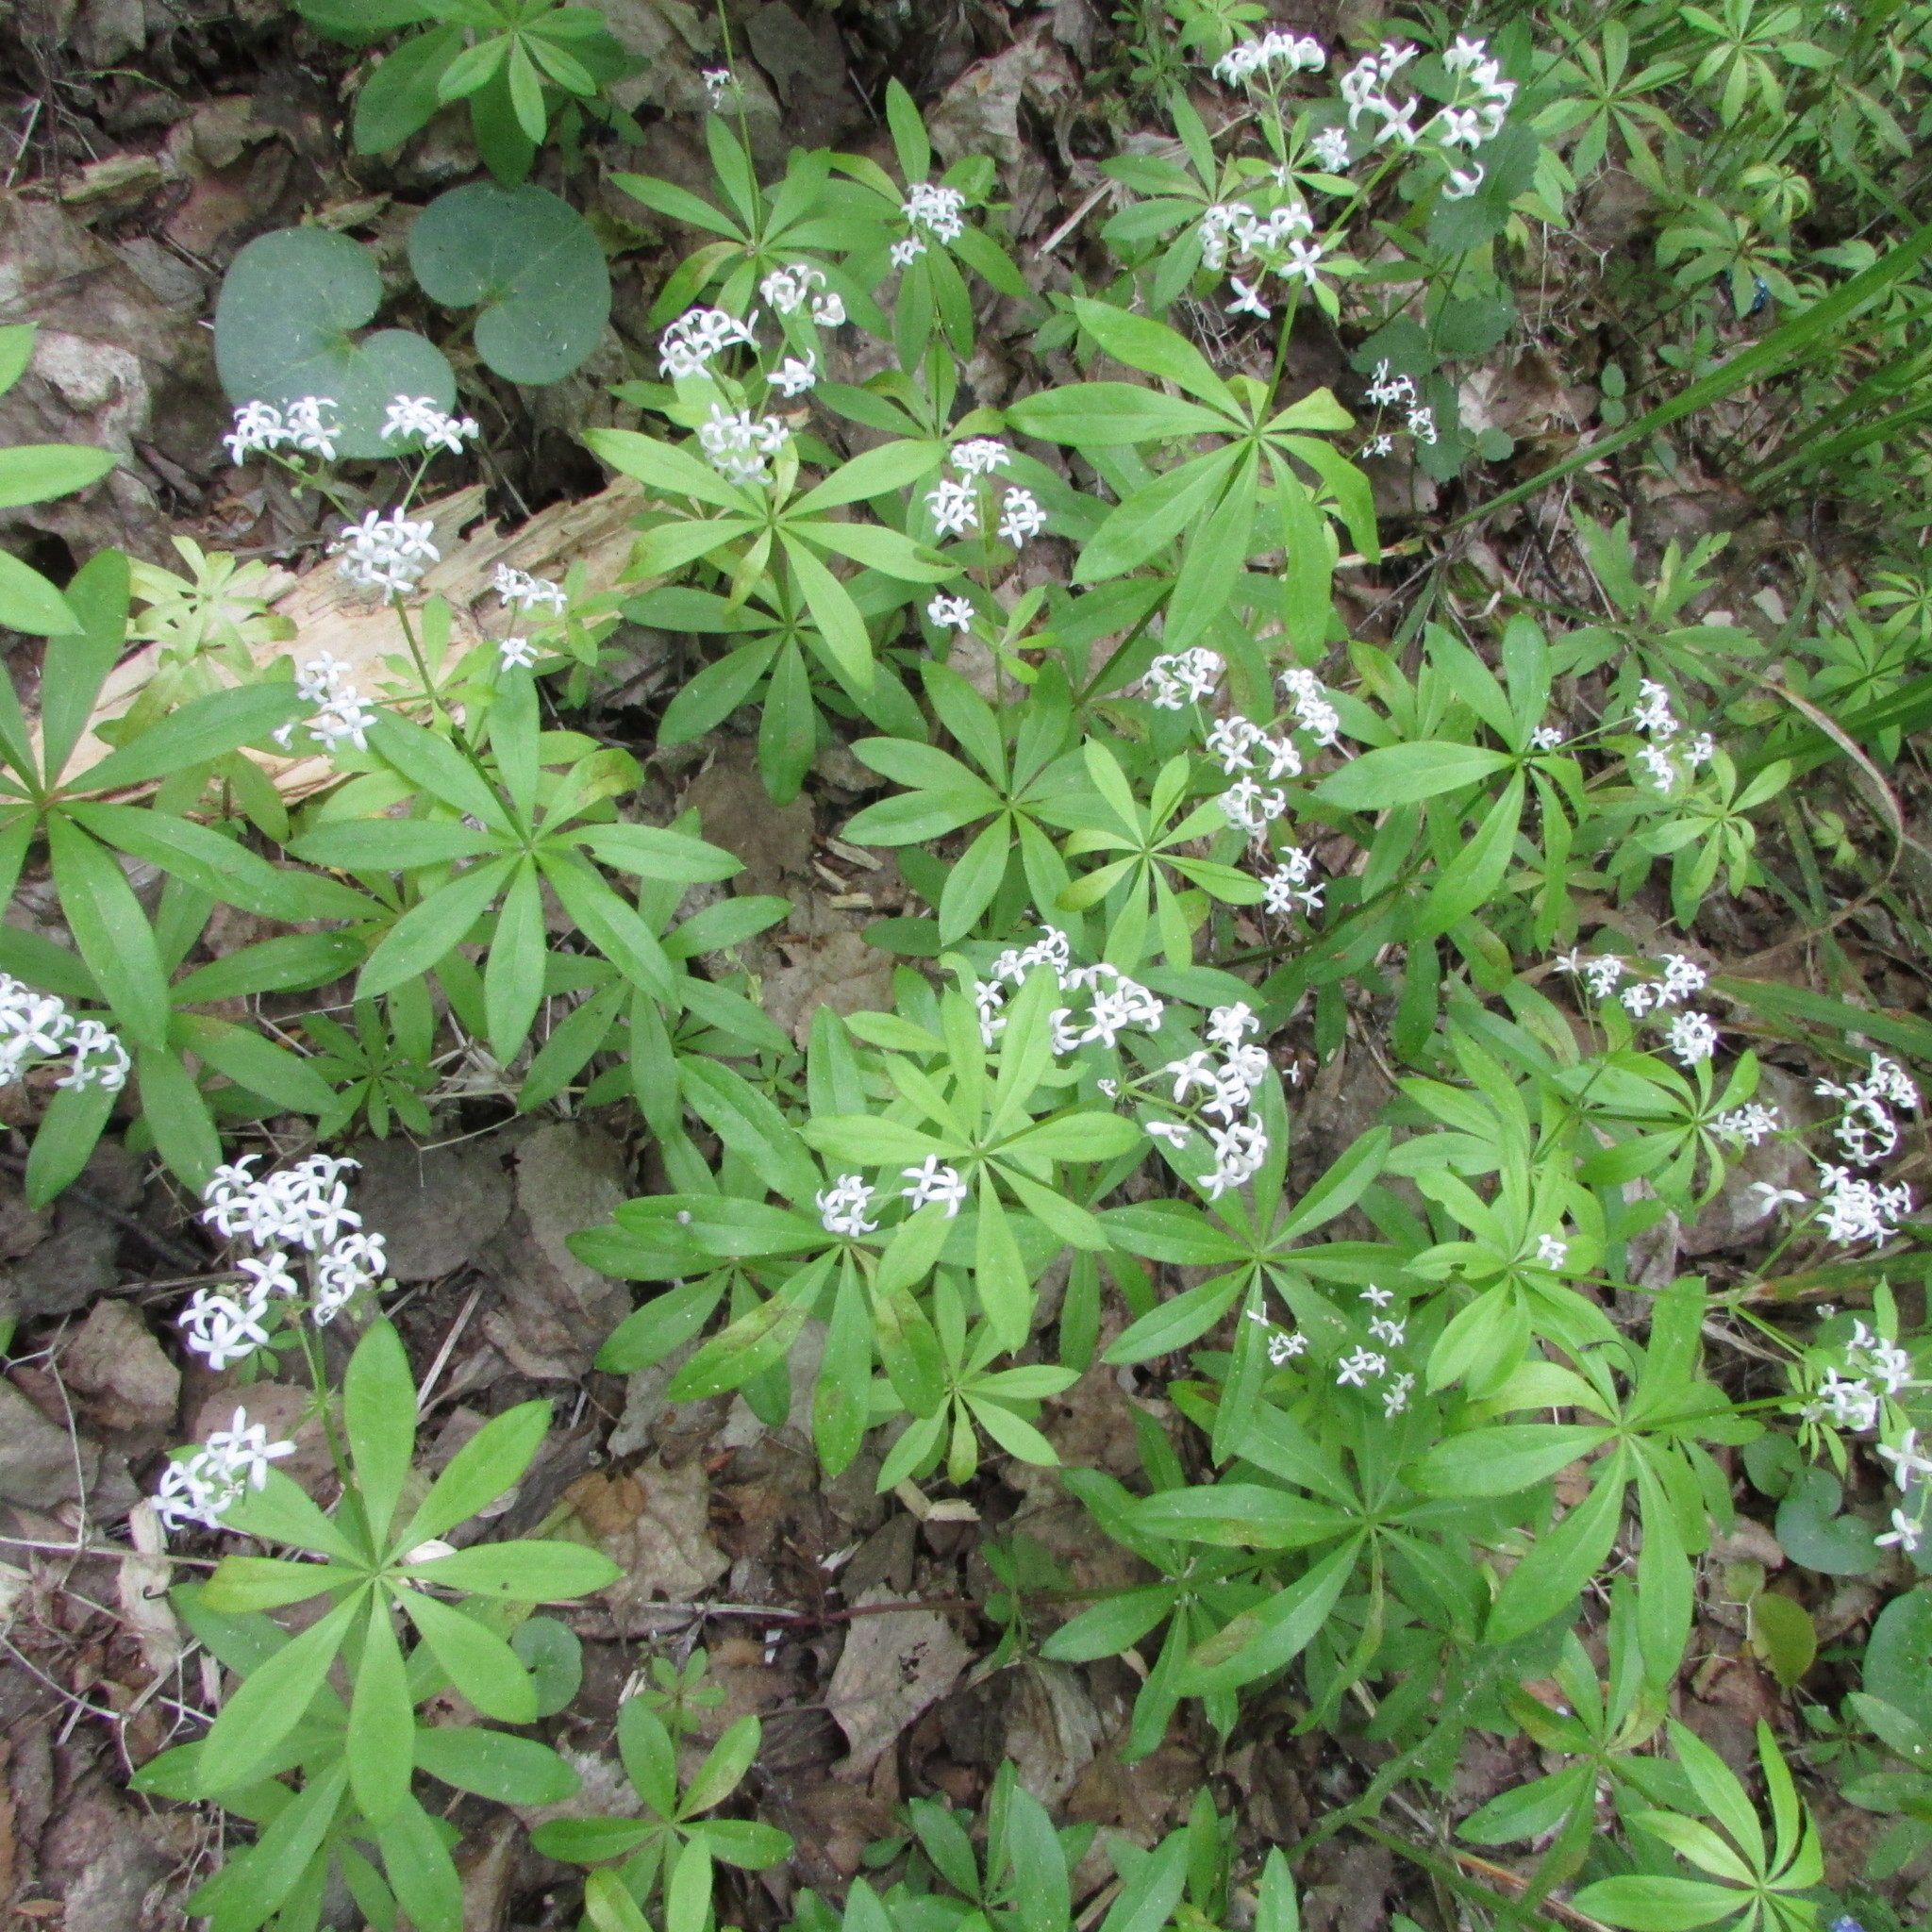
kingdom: Plantae
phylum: Tracheophyta
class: Magnoliopsida
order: Gentianales
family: Rubiaceae
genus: Galium
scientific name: Galium odoratum
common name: Sweet woodruff
